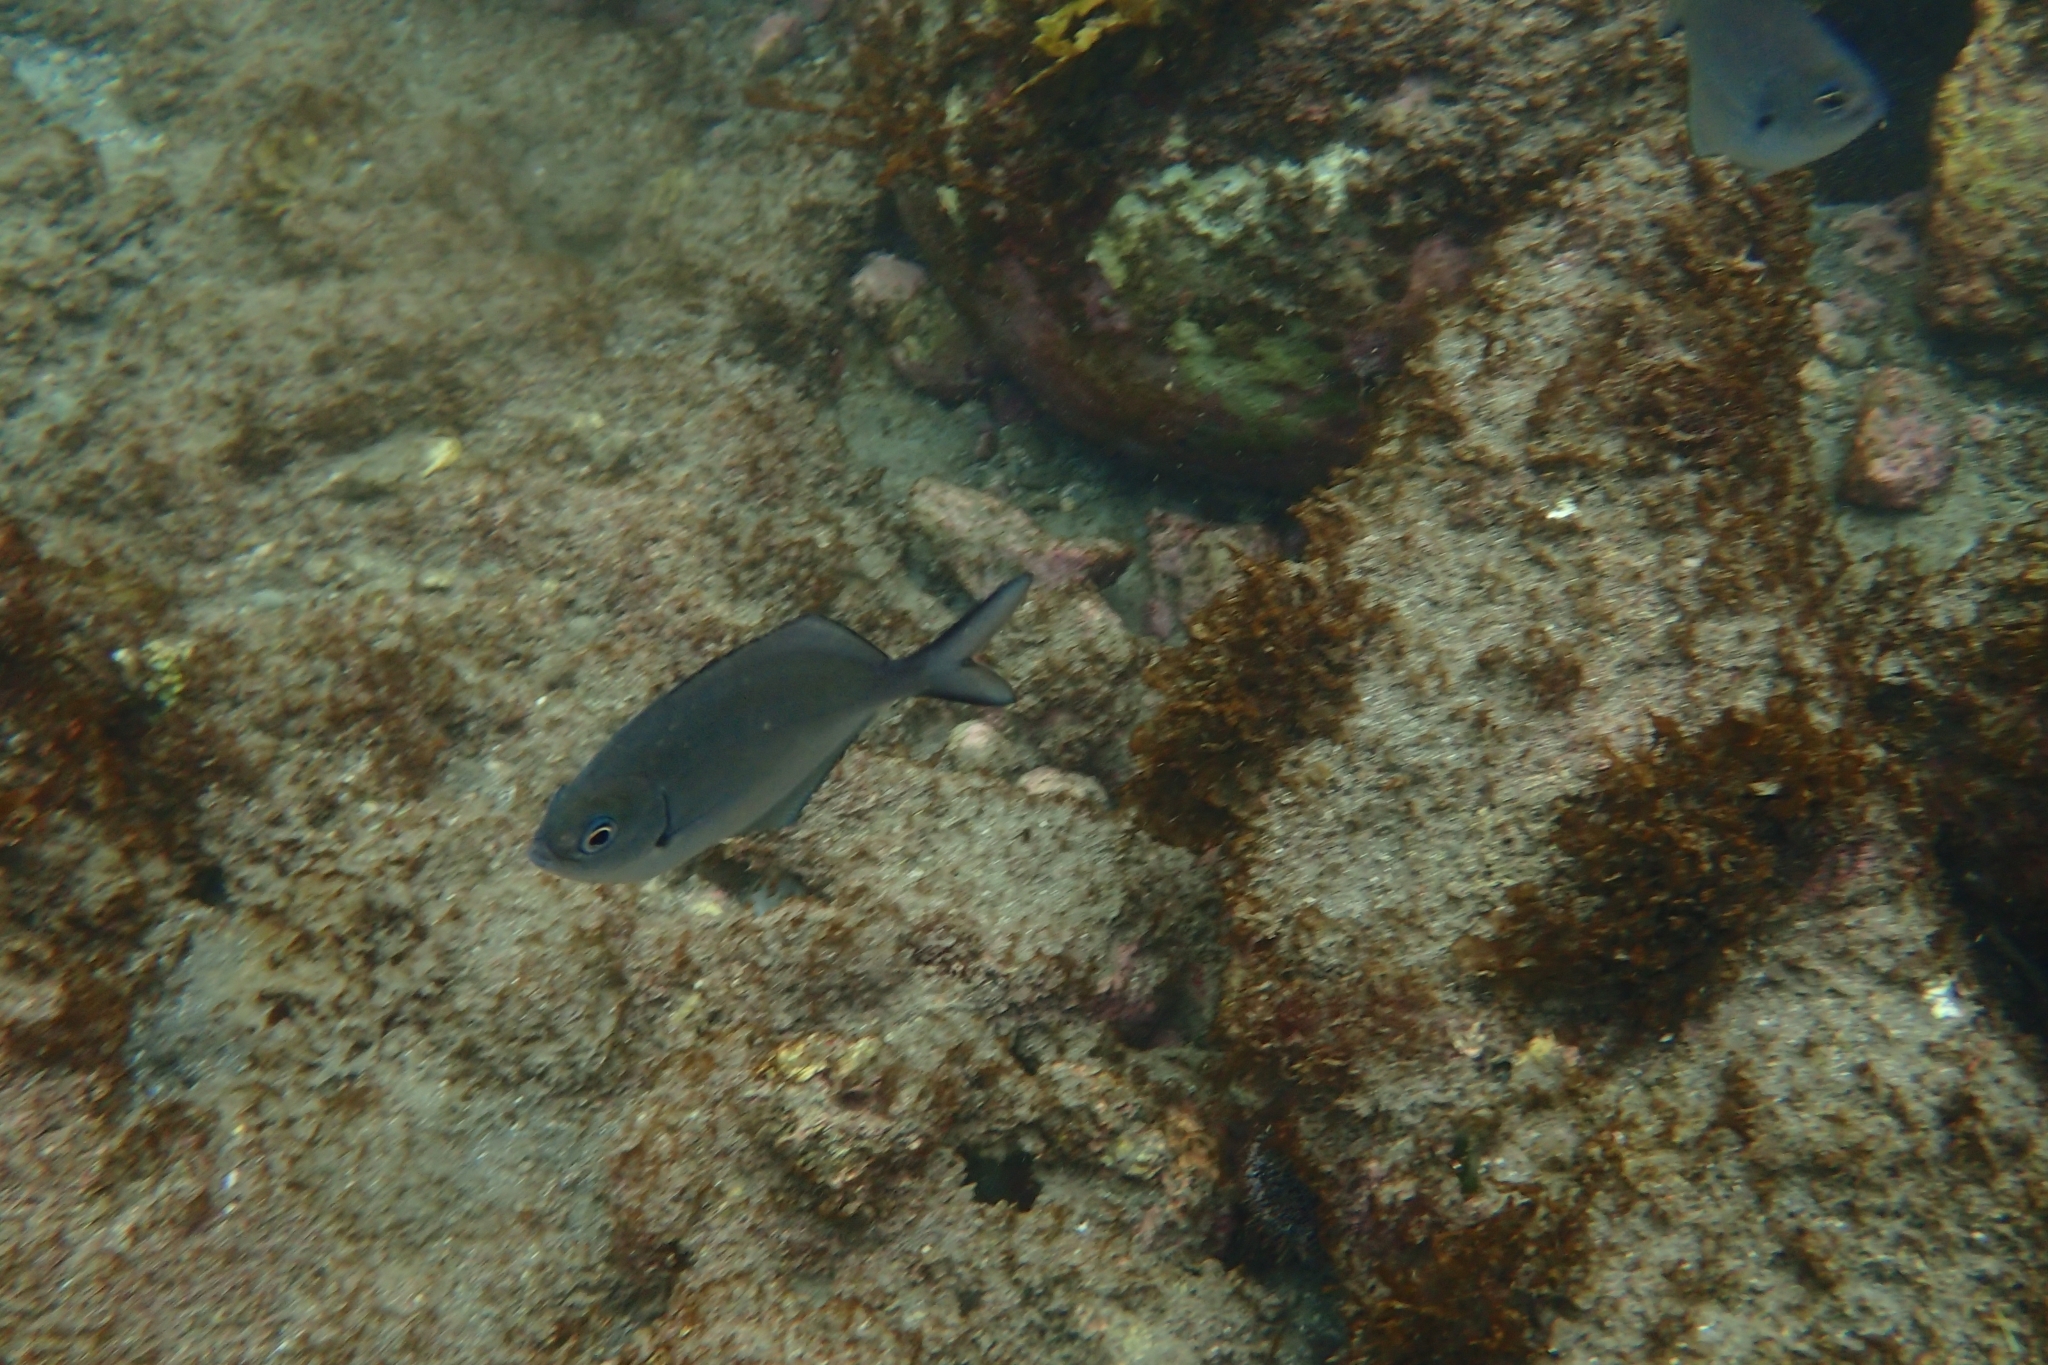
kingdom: Animalia
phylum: Chordata
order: Perciformes
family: Kyphosidae
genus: Scorpis
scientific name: Scorpis lineolata
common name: Sweep
